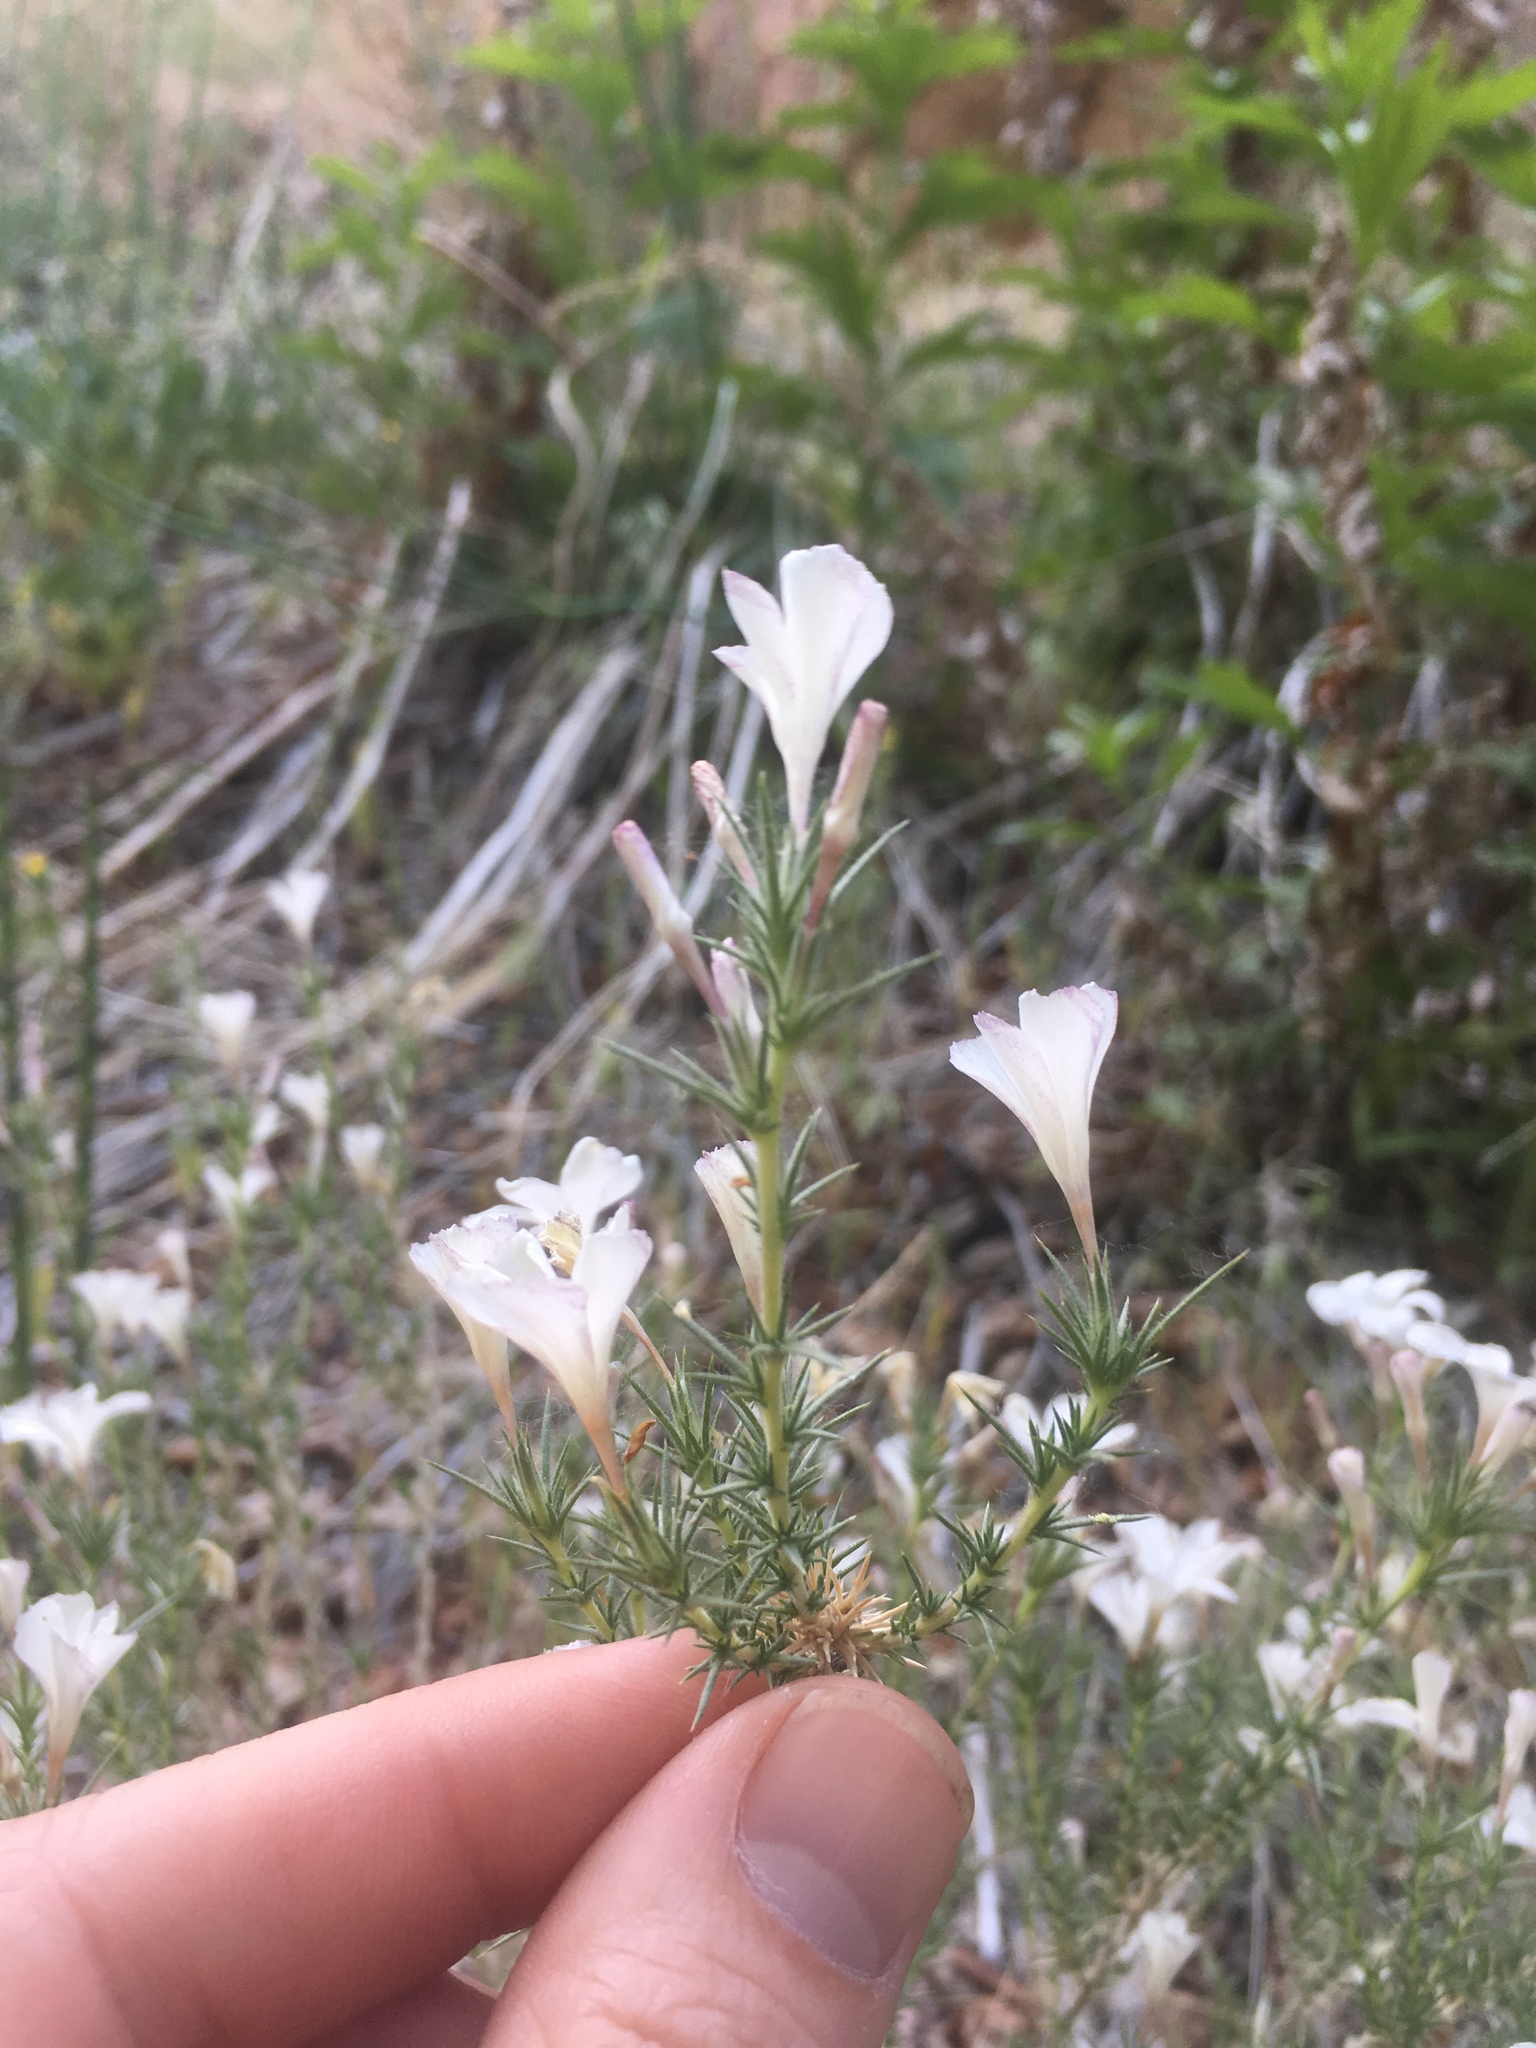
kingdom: Plantae
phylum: Tracheophyta
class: Magnoliopsida
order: Ericales
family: Polemoniaceae
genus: Linanthus
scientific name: Linanthus pungens
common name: Granite prickly phlox
